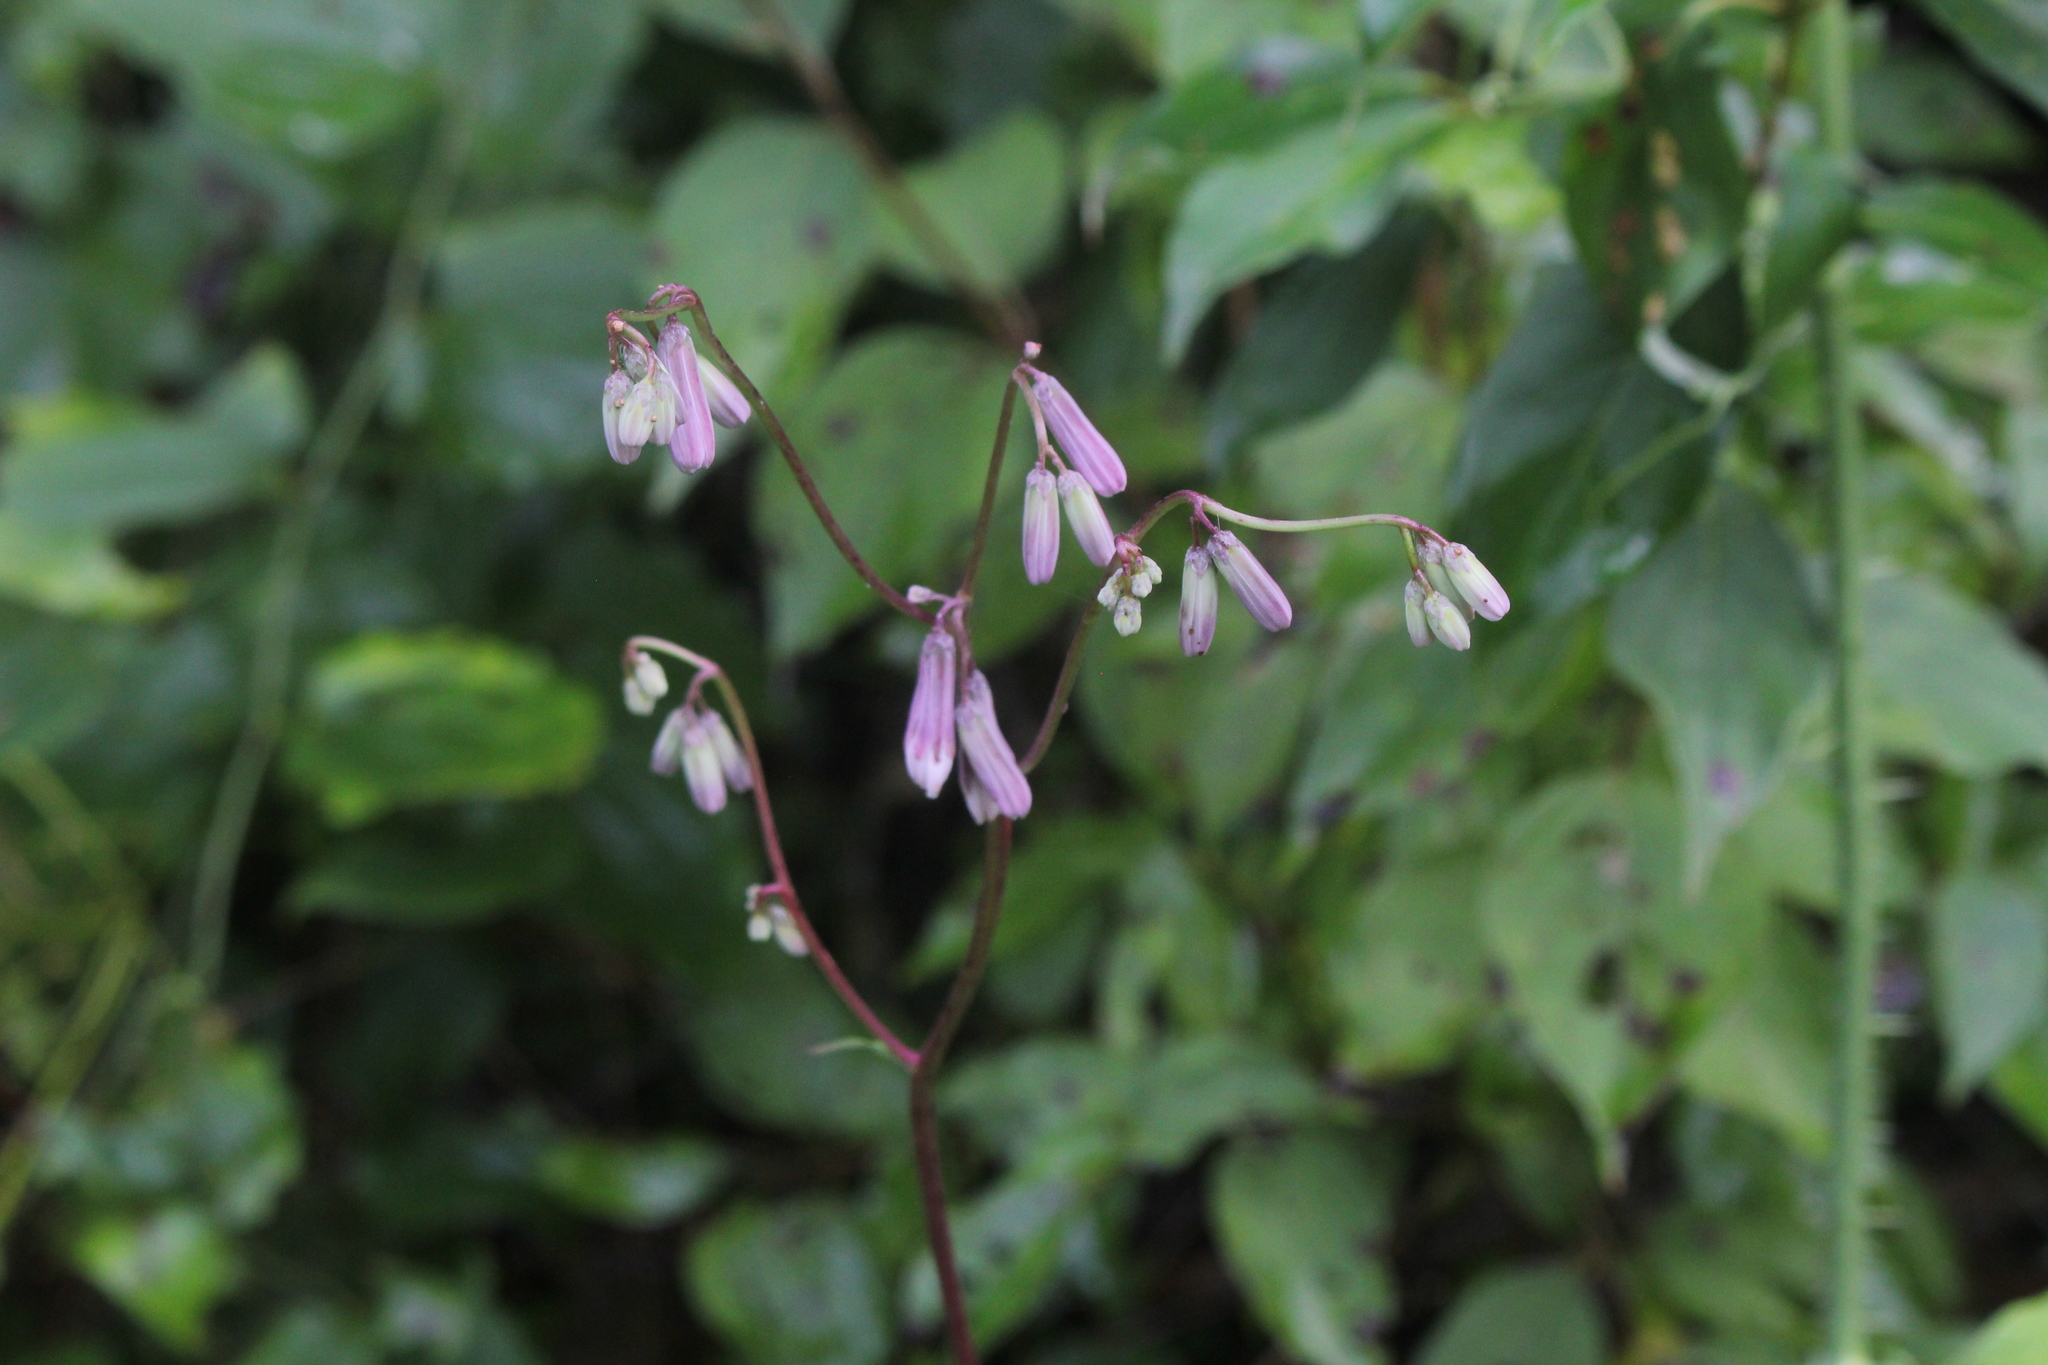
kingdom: Plantae
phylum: Tracheophyta
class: Magnoliopsida
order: Asterales
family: Asteraceae
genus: Nabalus
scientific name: Nabalus albus
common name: White rattlesnakeroot
